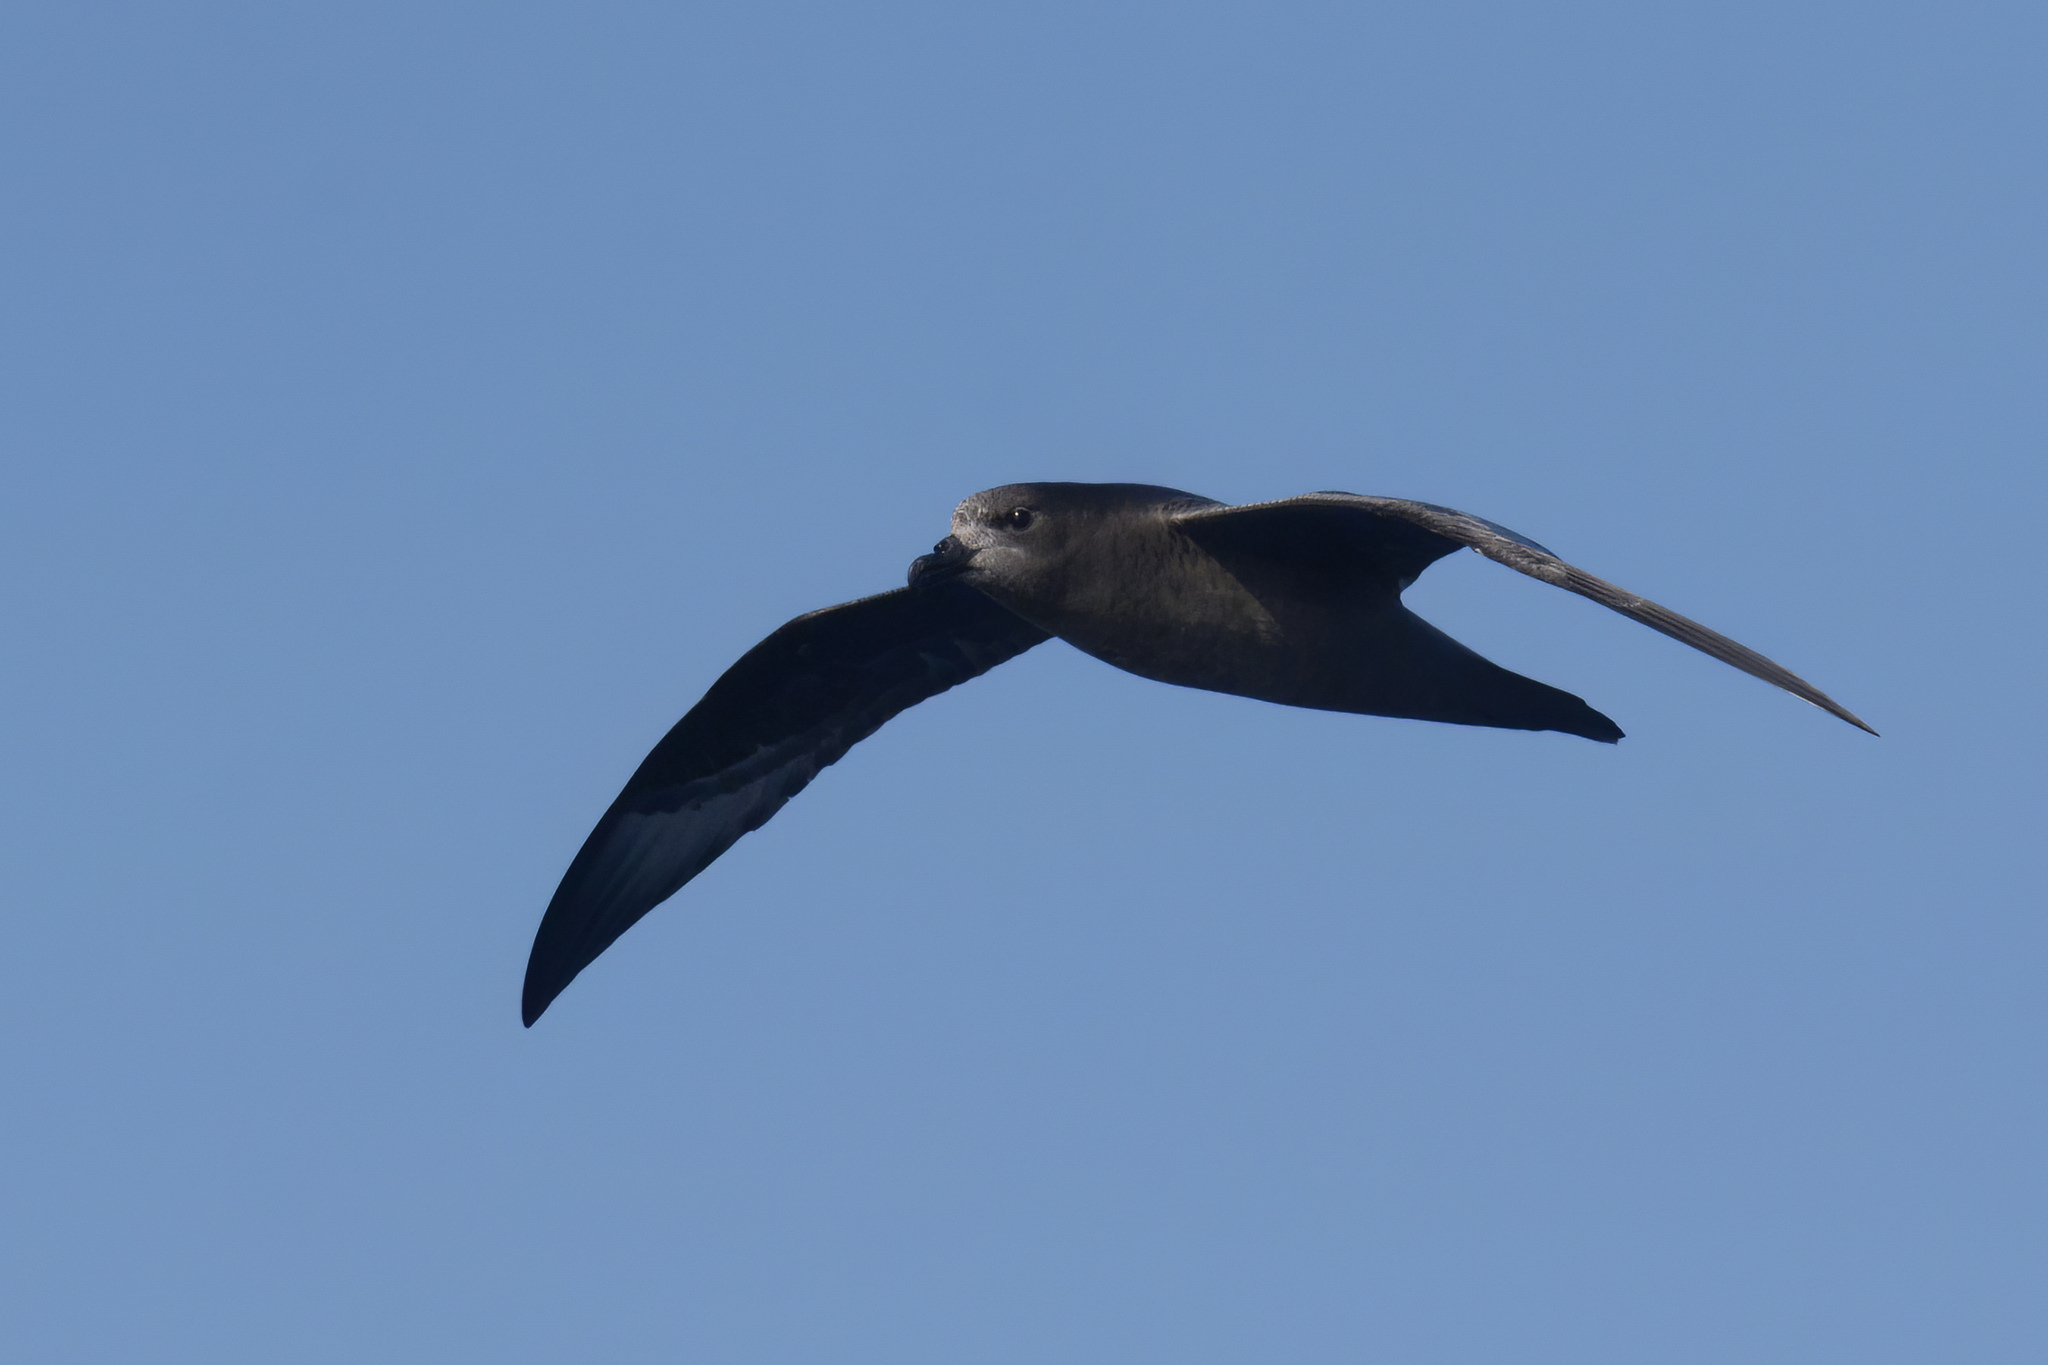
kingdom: Animalia
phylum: Chordata
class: Aves
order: Procellariiformes
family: Procellariidae
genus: Pterodroma
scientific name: Pterodroma solandri
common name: Providence petrel
